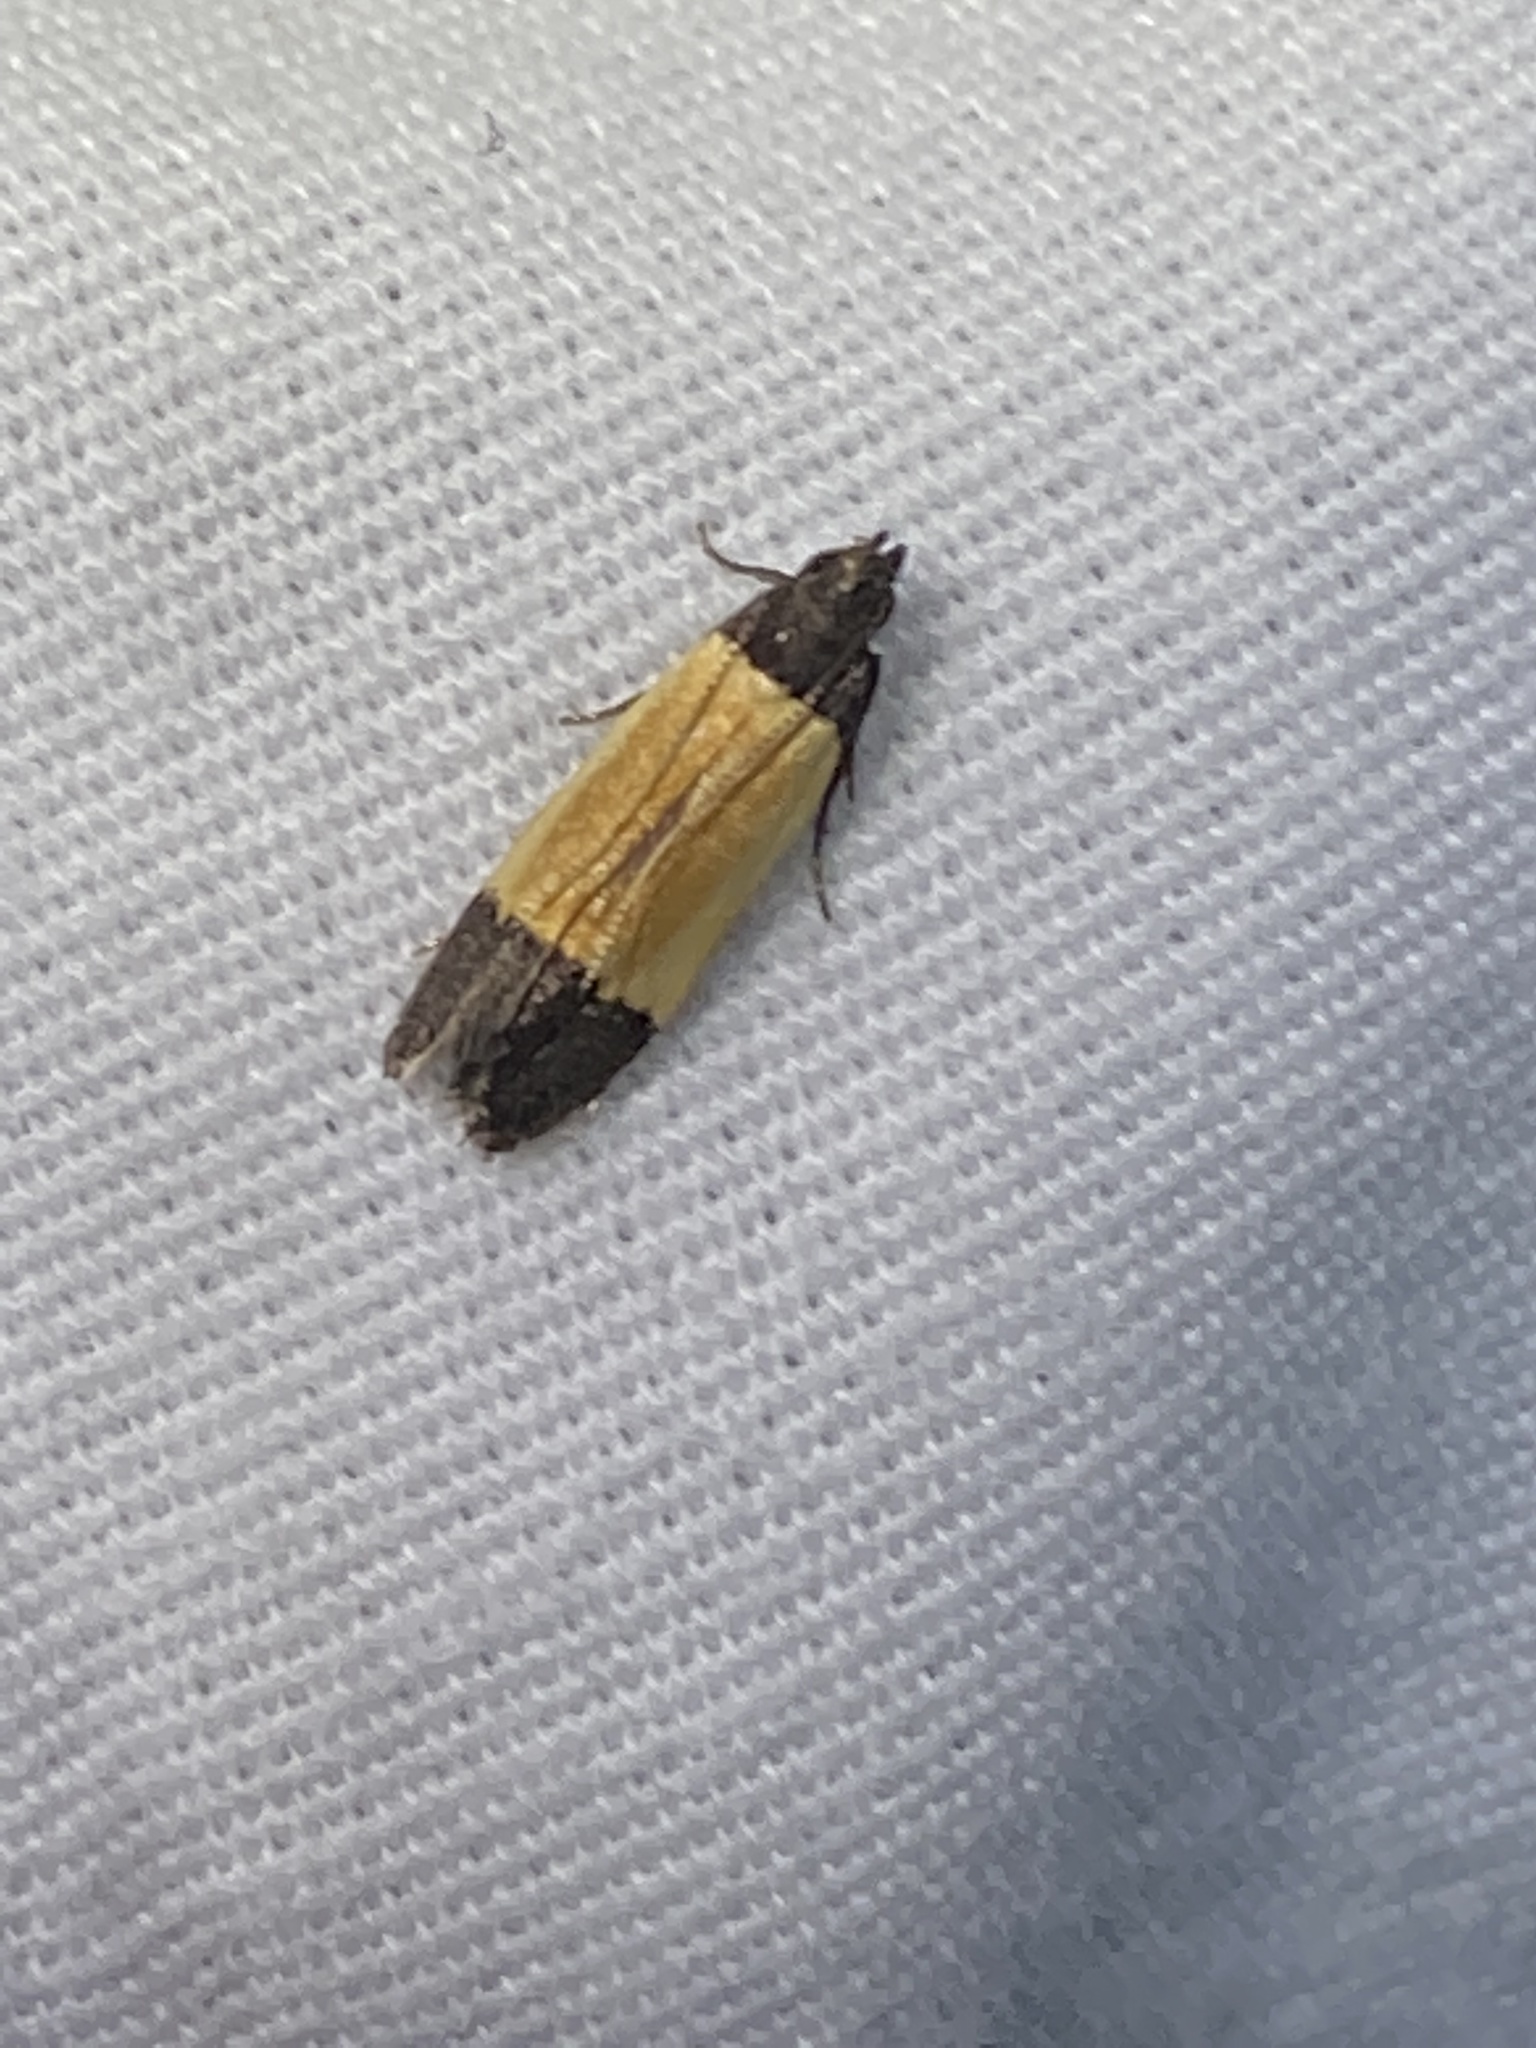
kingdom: Animalia
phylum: Arthropoda
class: Insecta
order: Lepidoptera
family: Gelechiidae
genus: Anacampsis
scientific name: Anacampsis coverdalella
